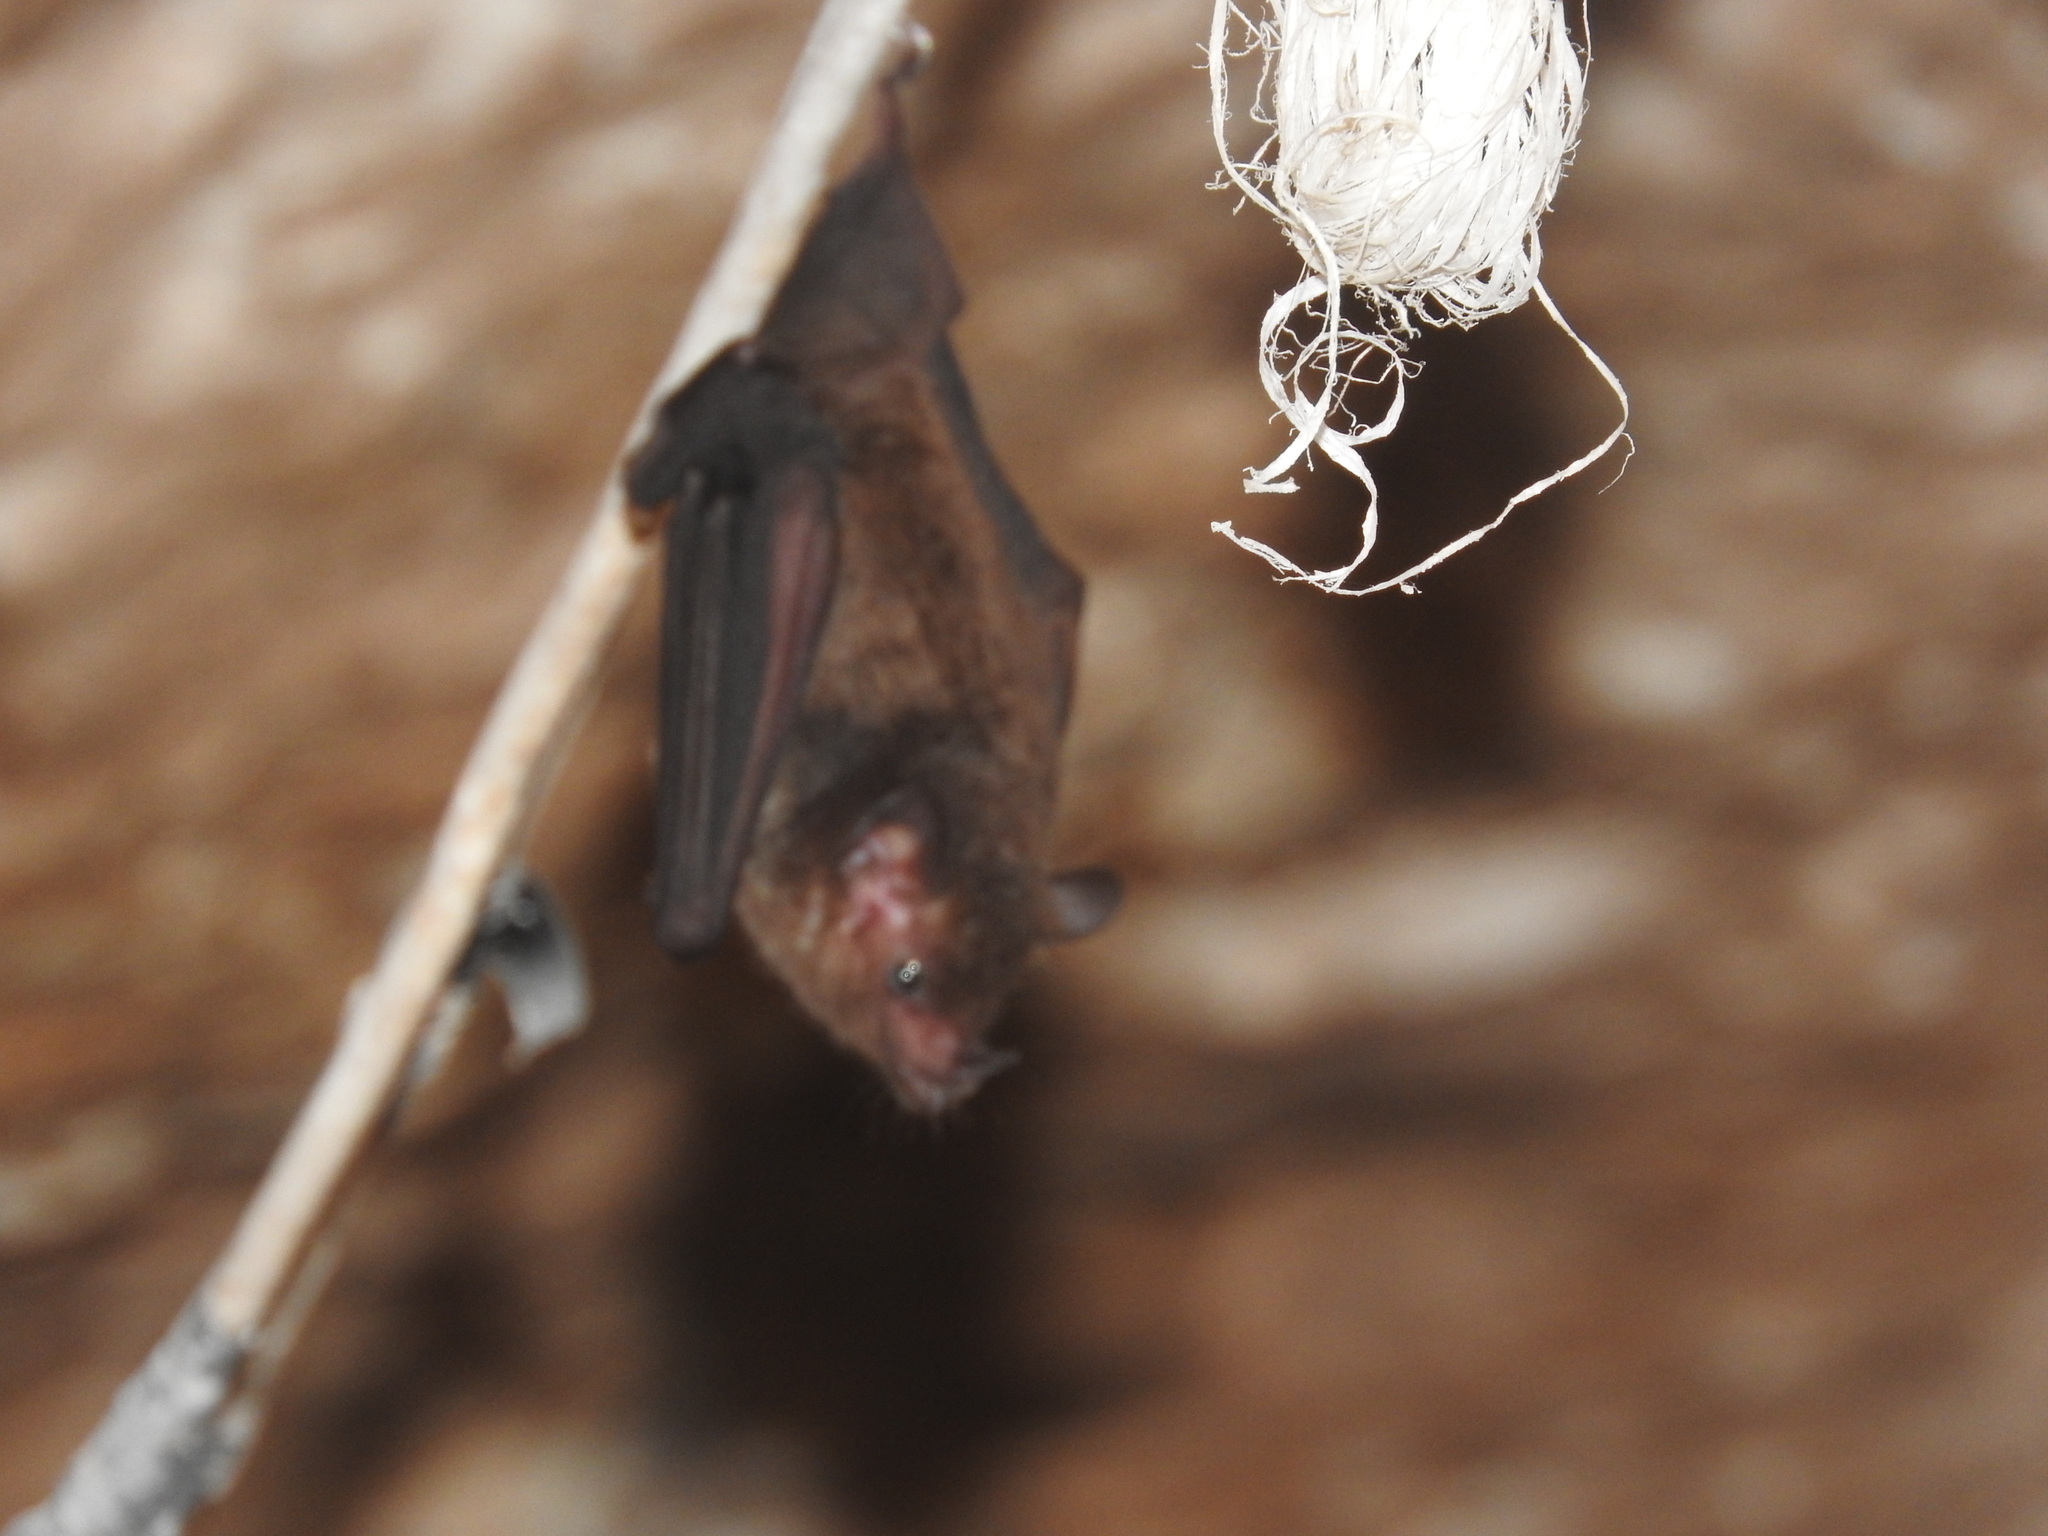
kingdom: Animalia
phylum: Chordata
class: Mammalia
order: Chiroptera
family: Phyllostomidae
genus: Glossophaga
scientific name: Glossophaga soricina
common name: Pallas's long-tongued bat
